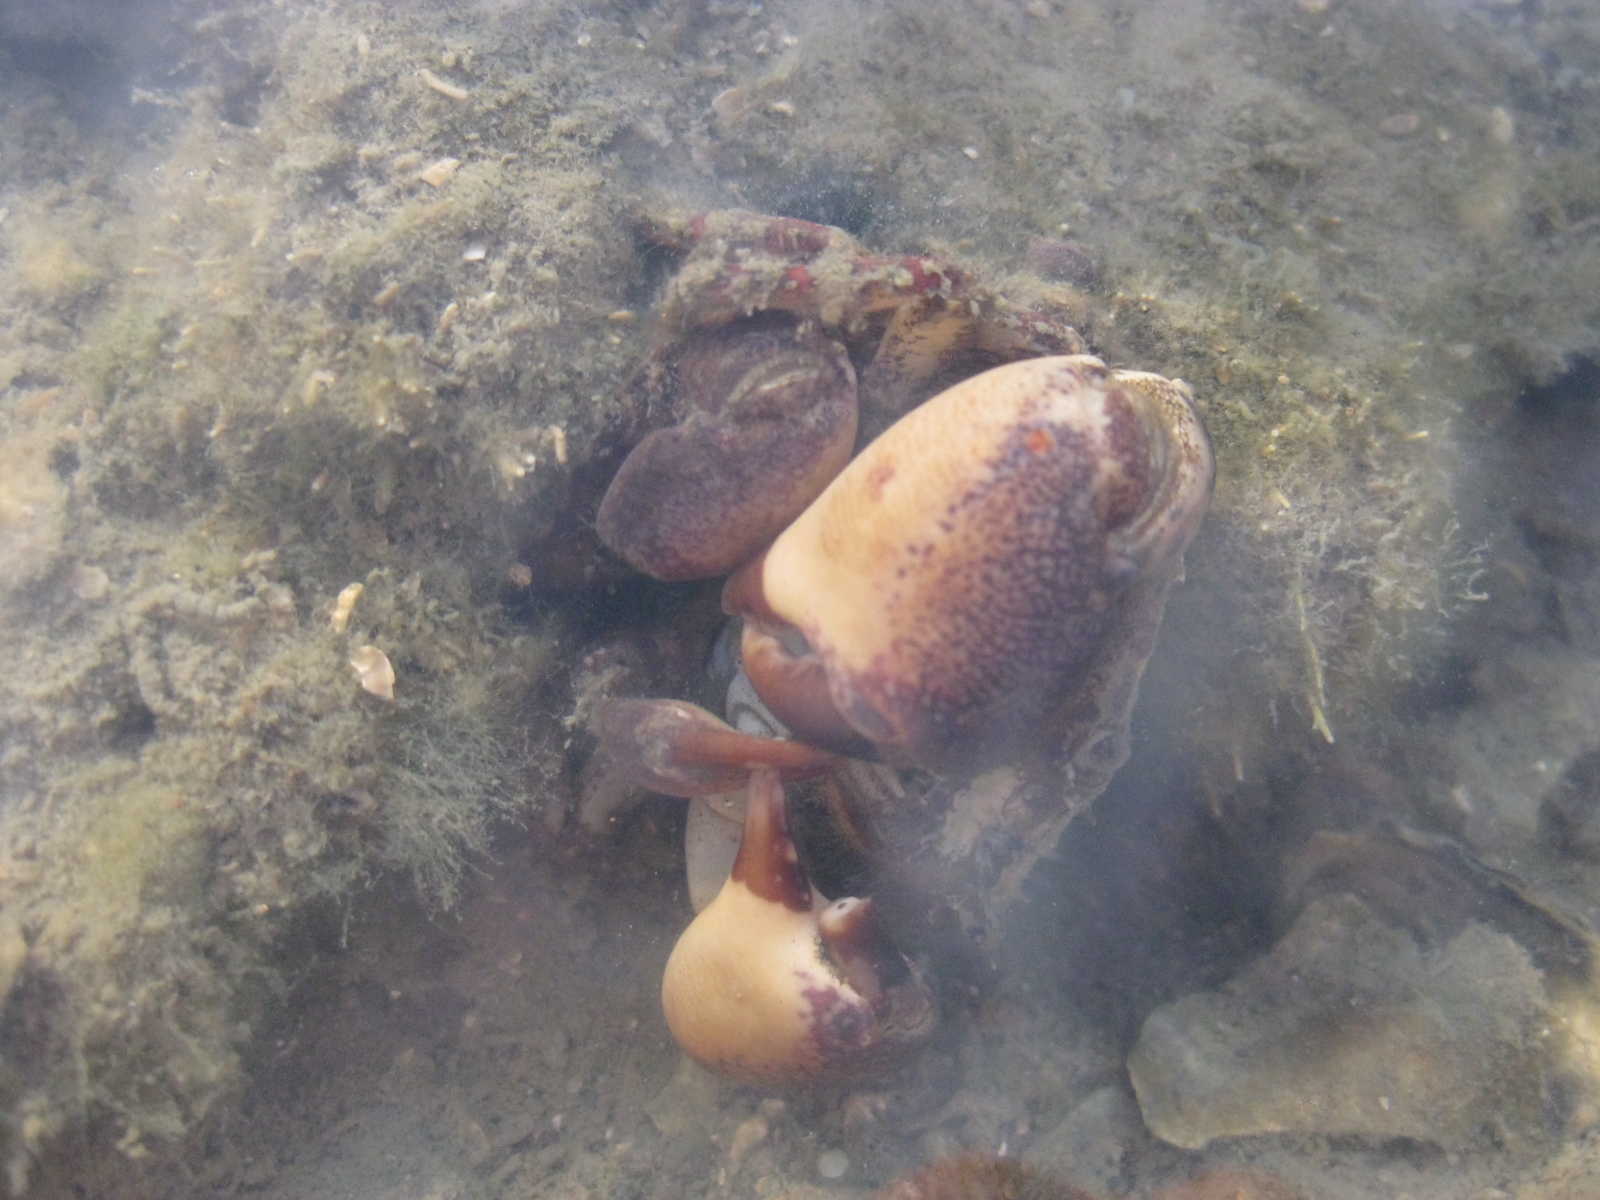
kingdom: Animalia
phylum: Arthropoda
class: Malacostraca
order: Decapoda
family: Pilumnidae
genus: Pilumnopeus
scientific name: Pilumnopeus serratifrons
